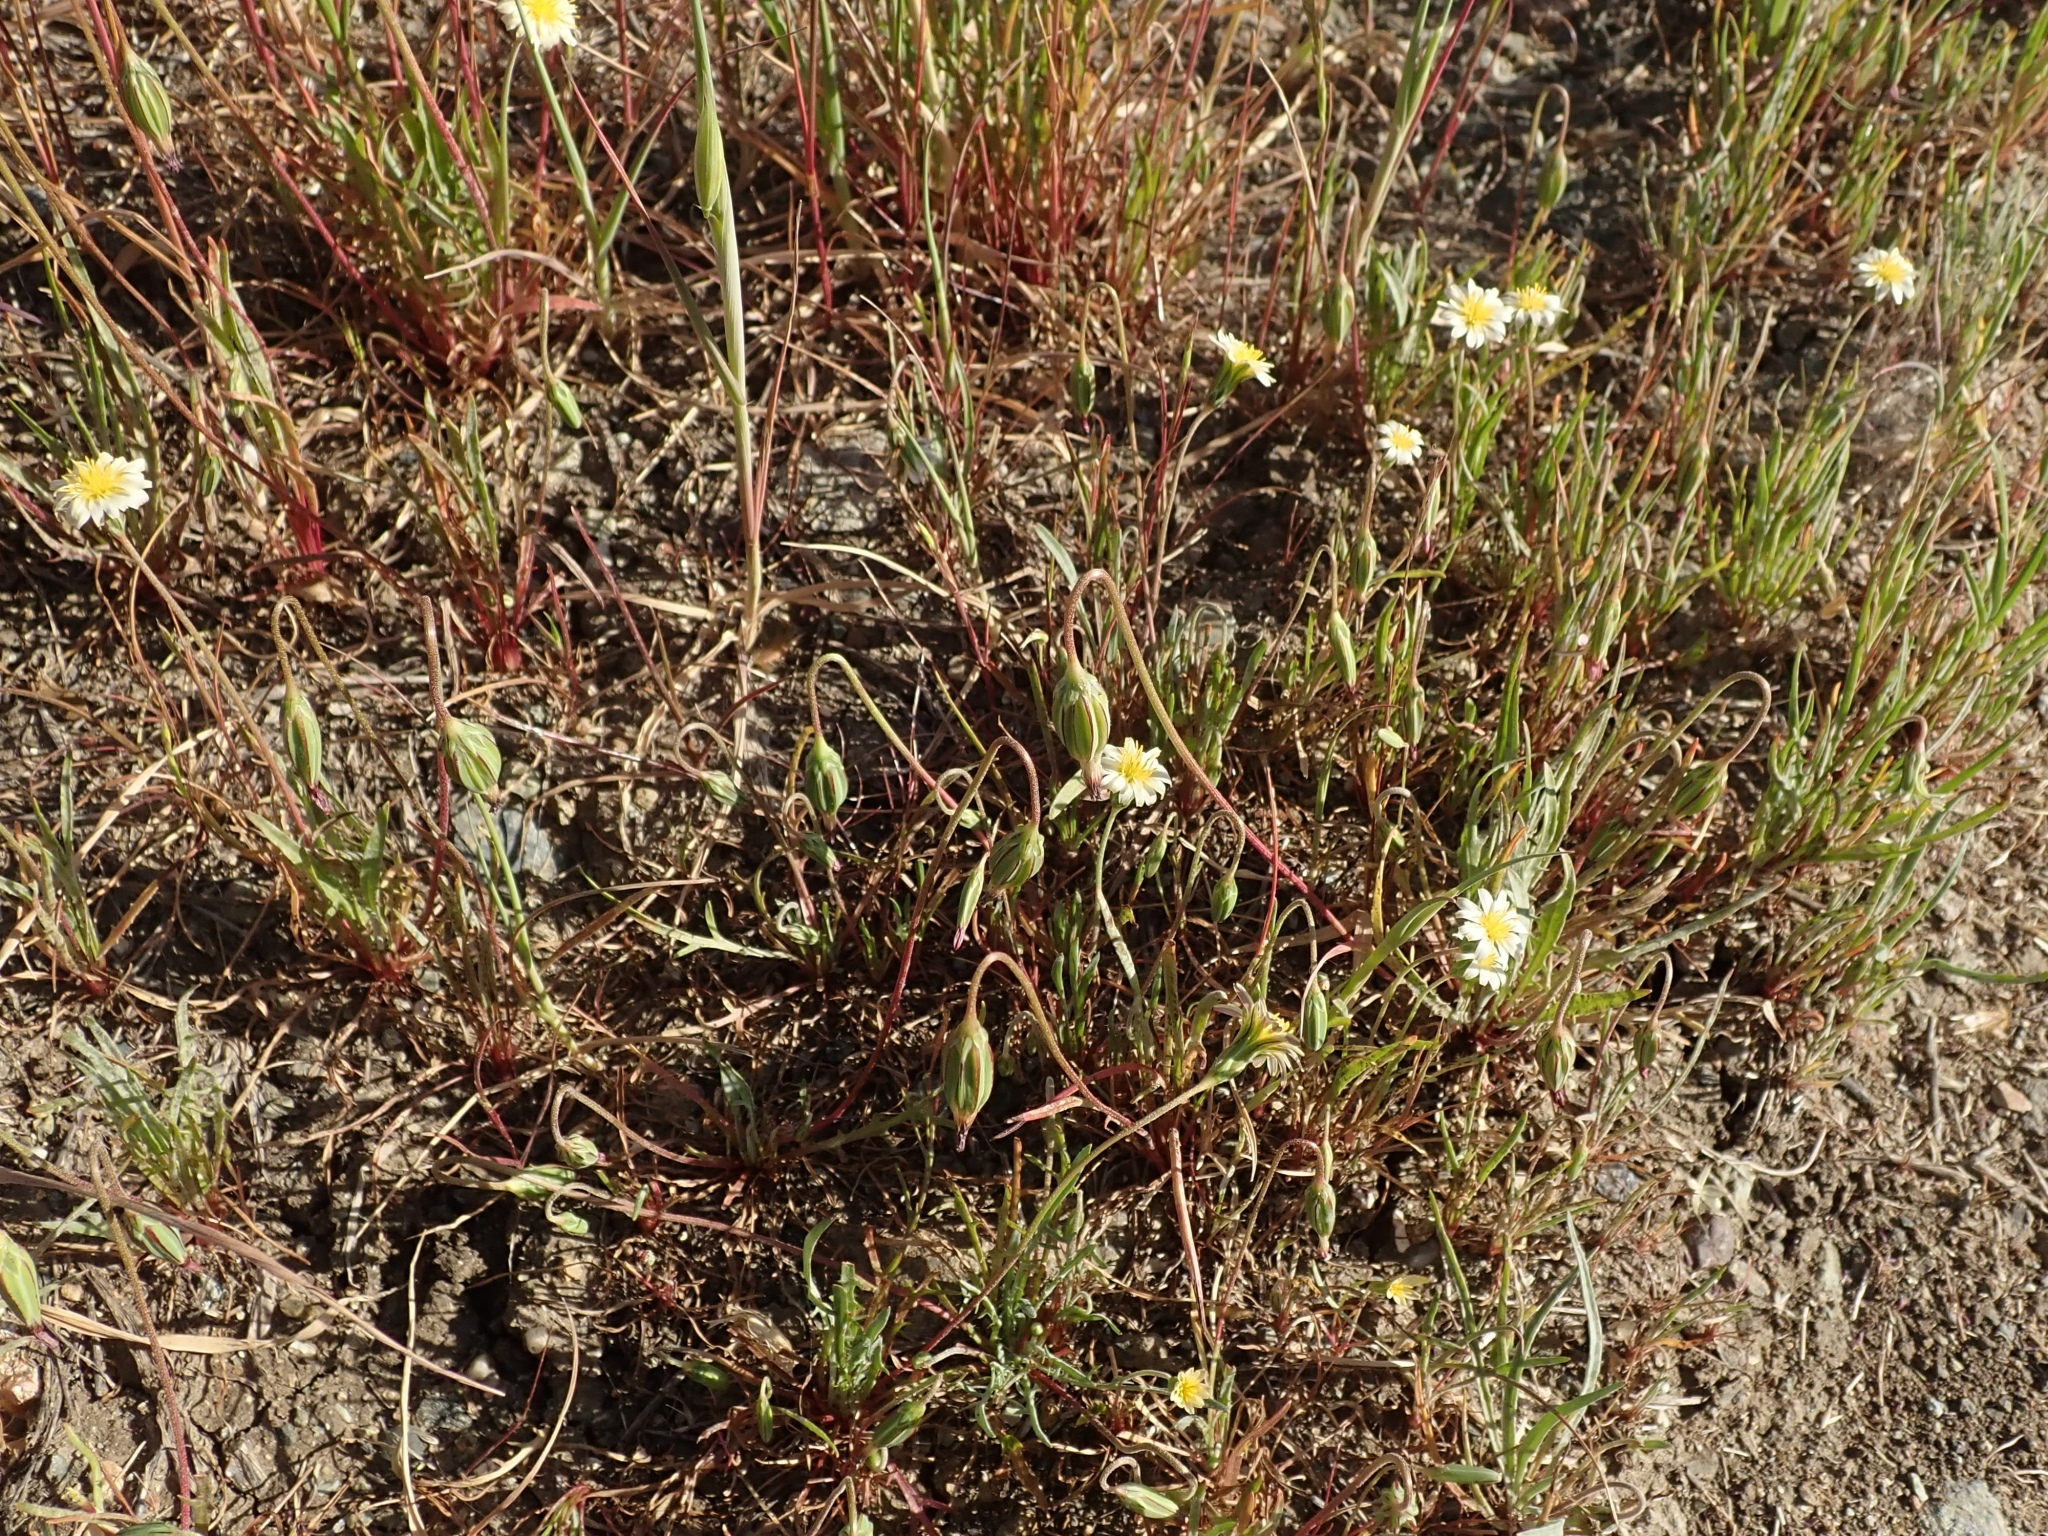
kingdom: Plantae
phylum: Tracheophyta
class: Magnoliopsida
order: Asterales
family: Asteraceae
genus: Microseris
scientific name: Microseris douglasii
